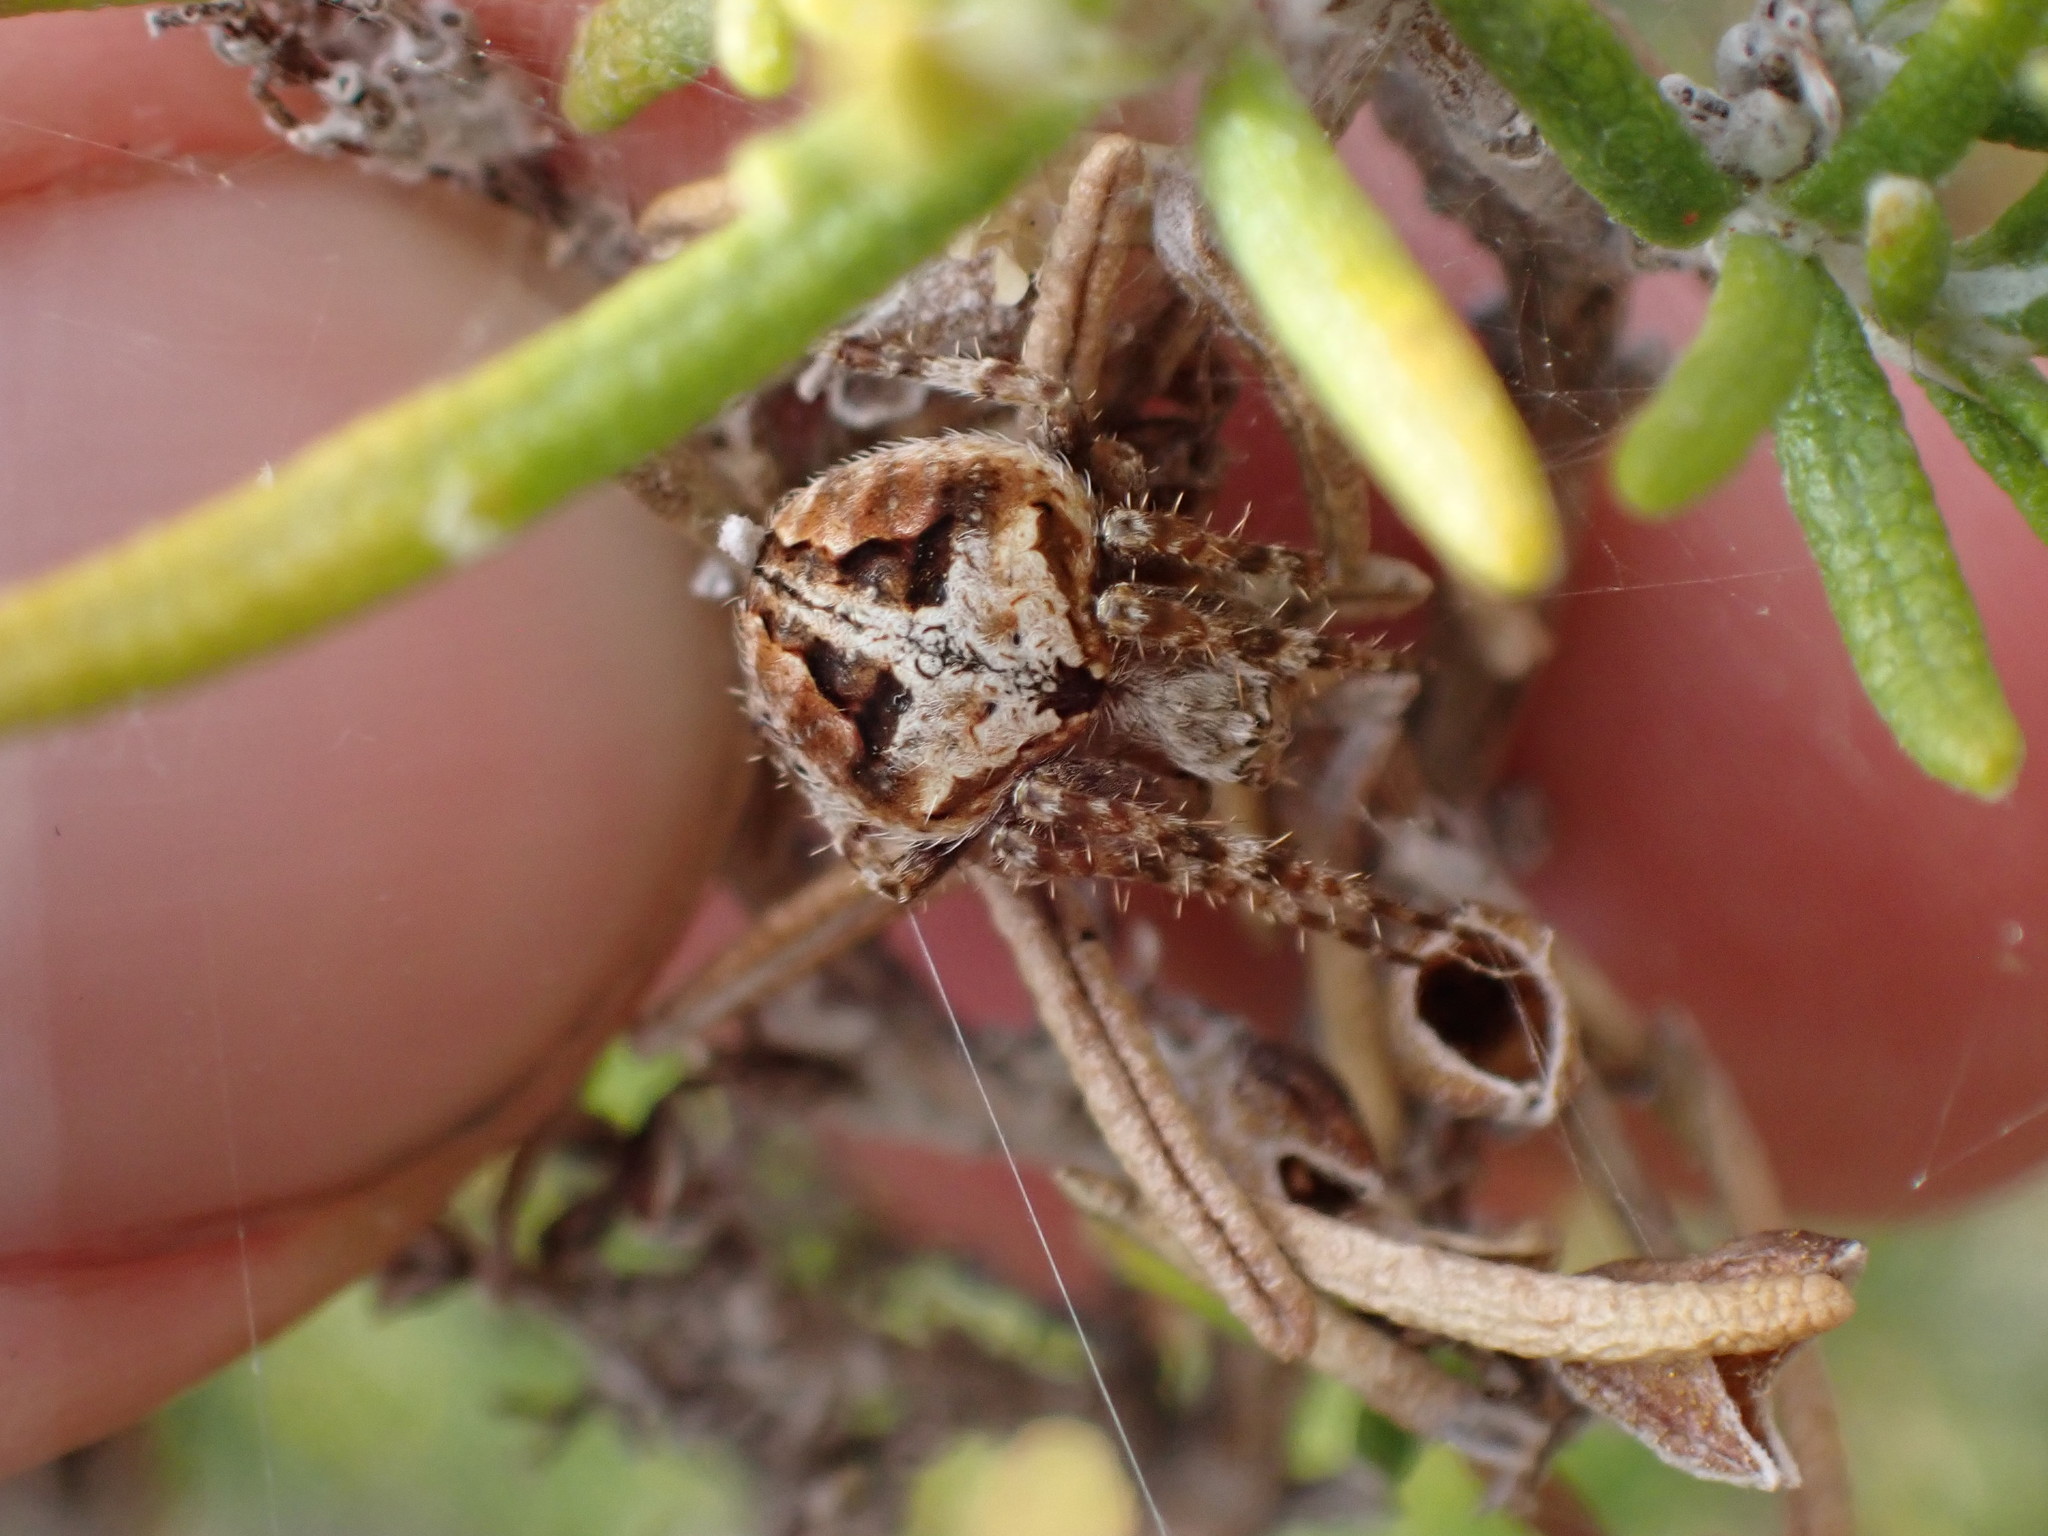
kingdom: Animalia
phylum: Arthropoda
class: Arachnida
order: Araneae
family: Araneidae
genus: Neoscona
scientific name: Neoscona subfusca
